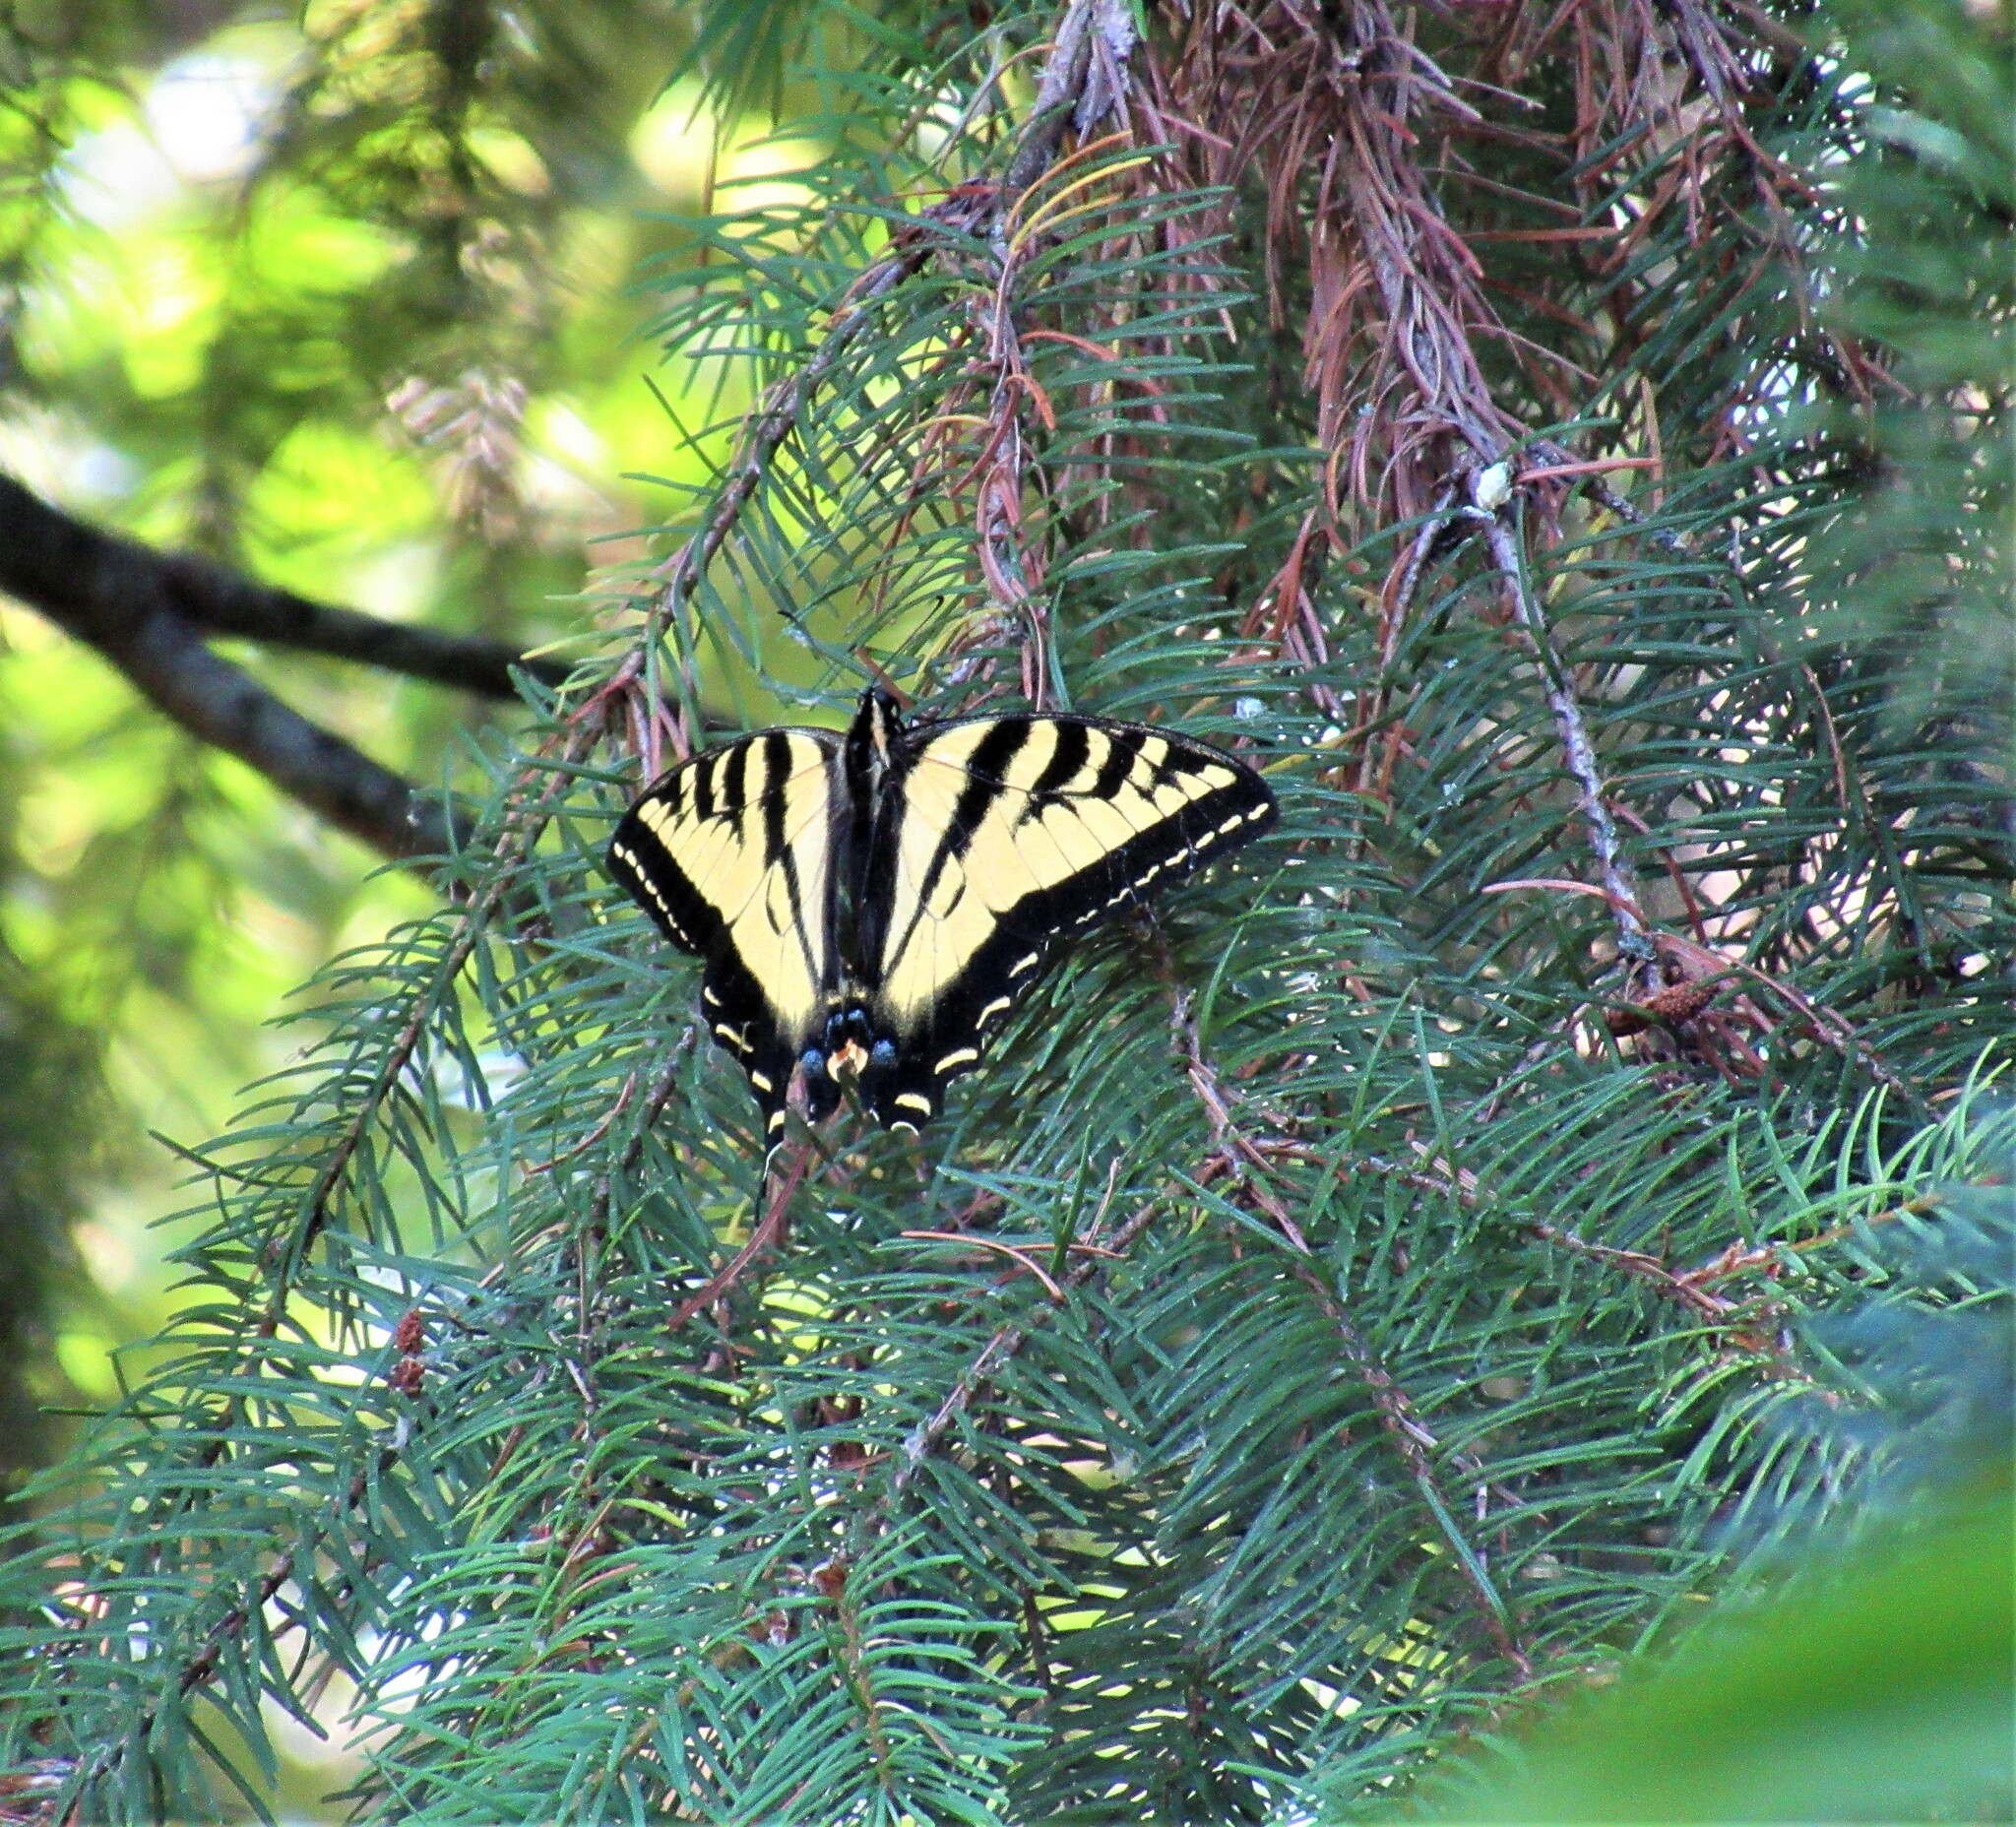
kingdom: Animalia
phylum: Arthropoda
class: Insecta
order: Lepidoptera
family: Papilionidae
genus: Papilio
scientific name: Papilio rutulus
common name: Western tiger swallowtail
